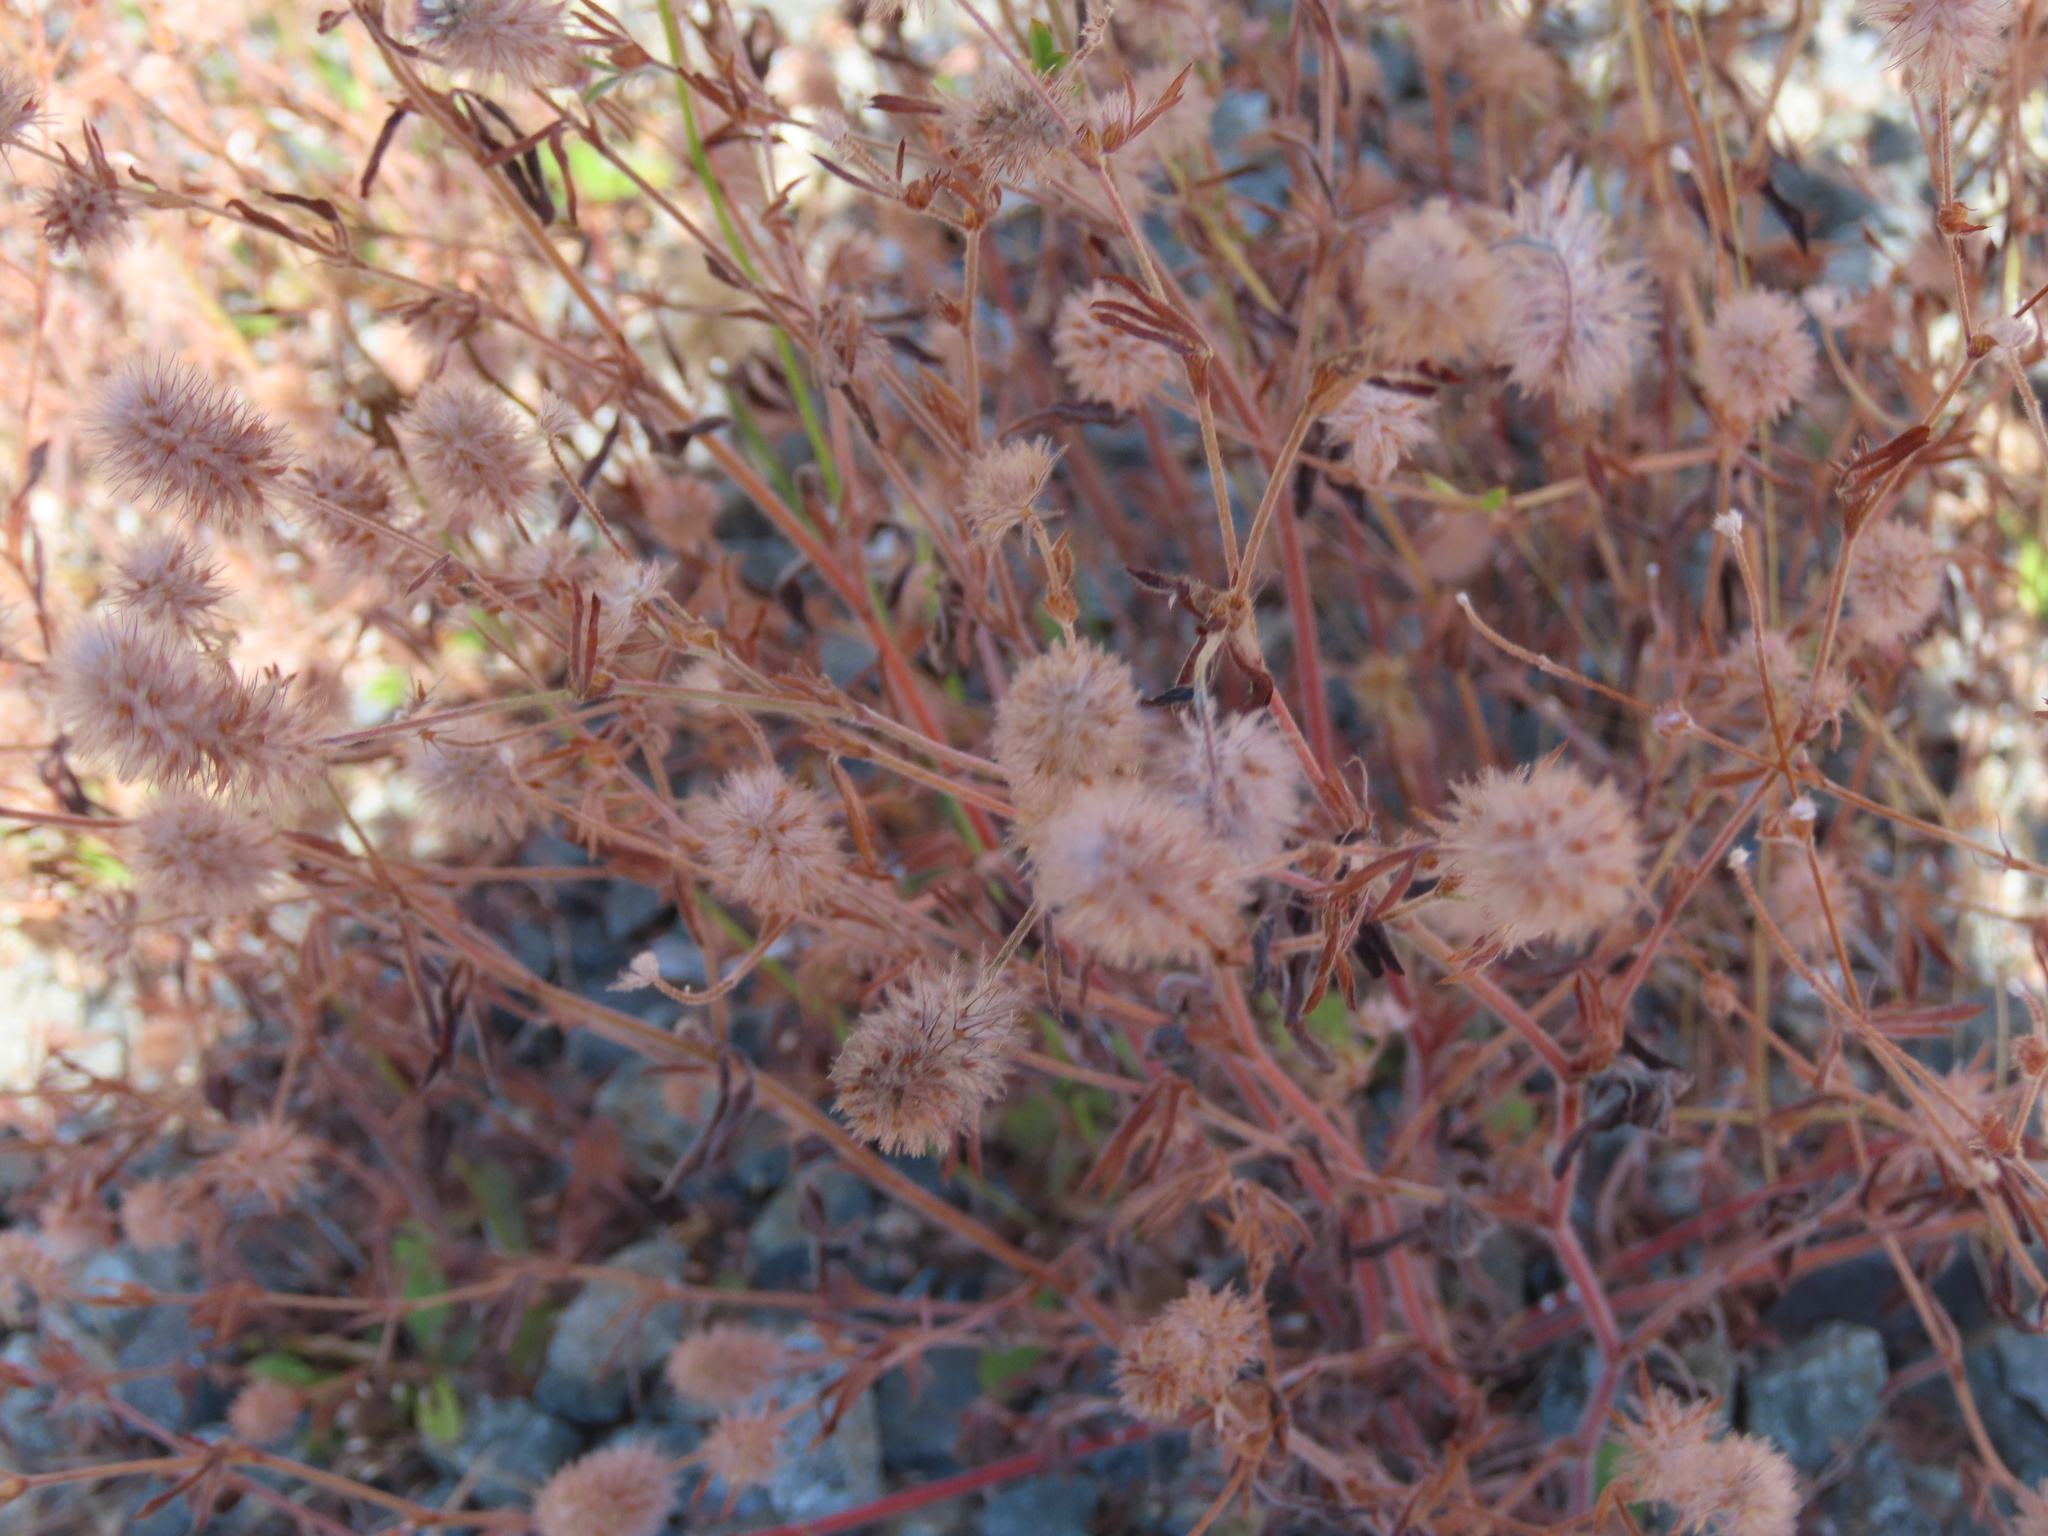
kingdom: Plantae
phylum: Tracheophyta
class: Magnoliopsida
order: Fabales
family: Fabaceae
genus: Trifolium
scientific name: Trifolium arvense
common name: Hare's-foot clover
